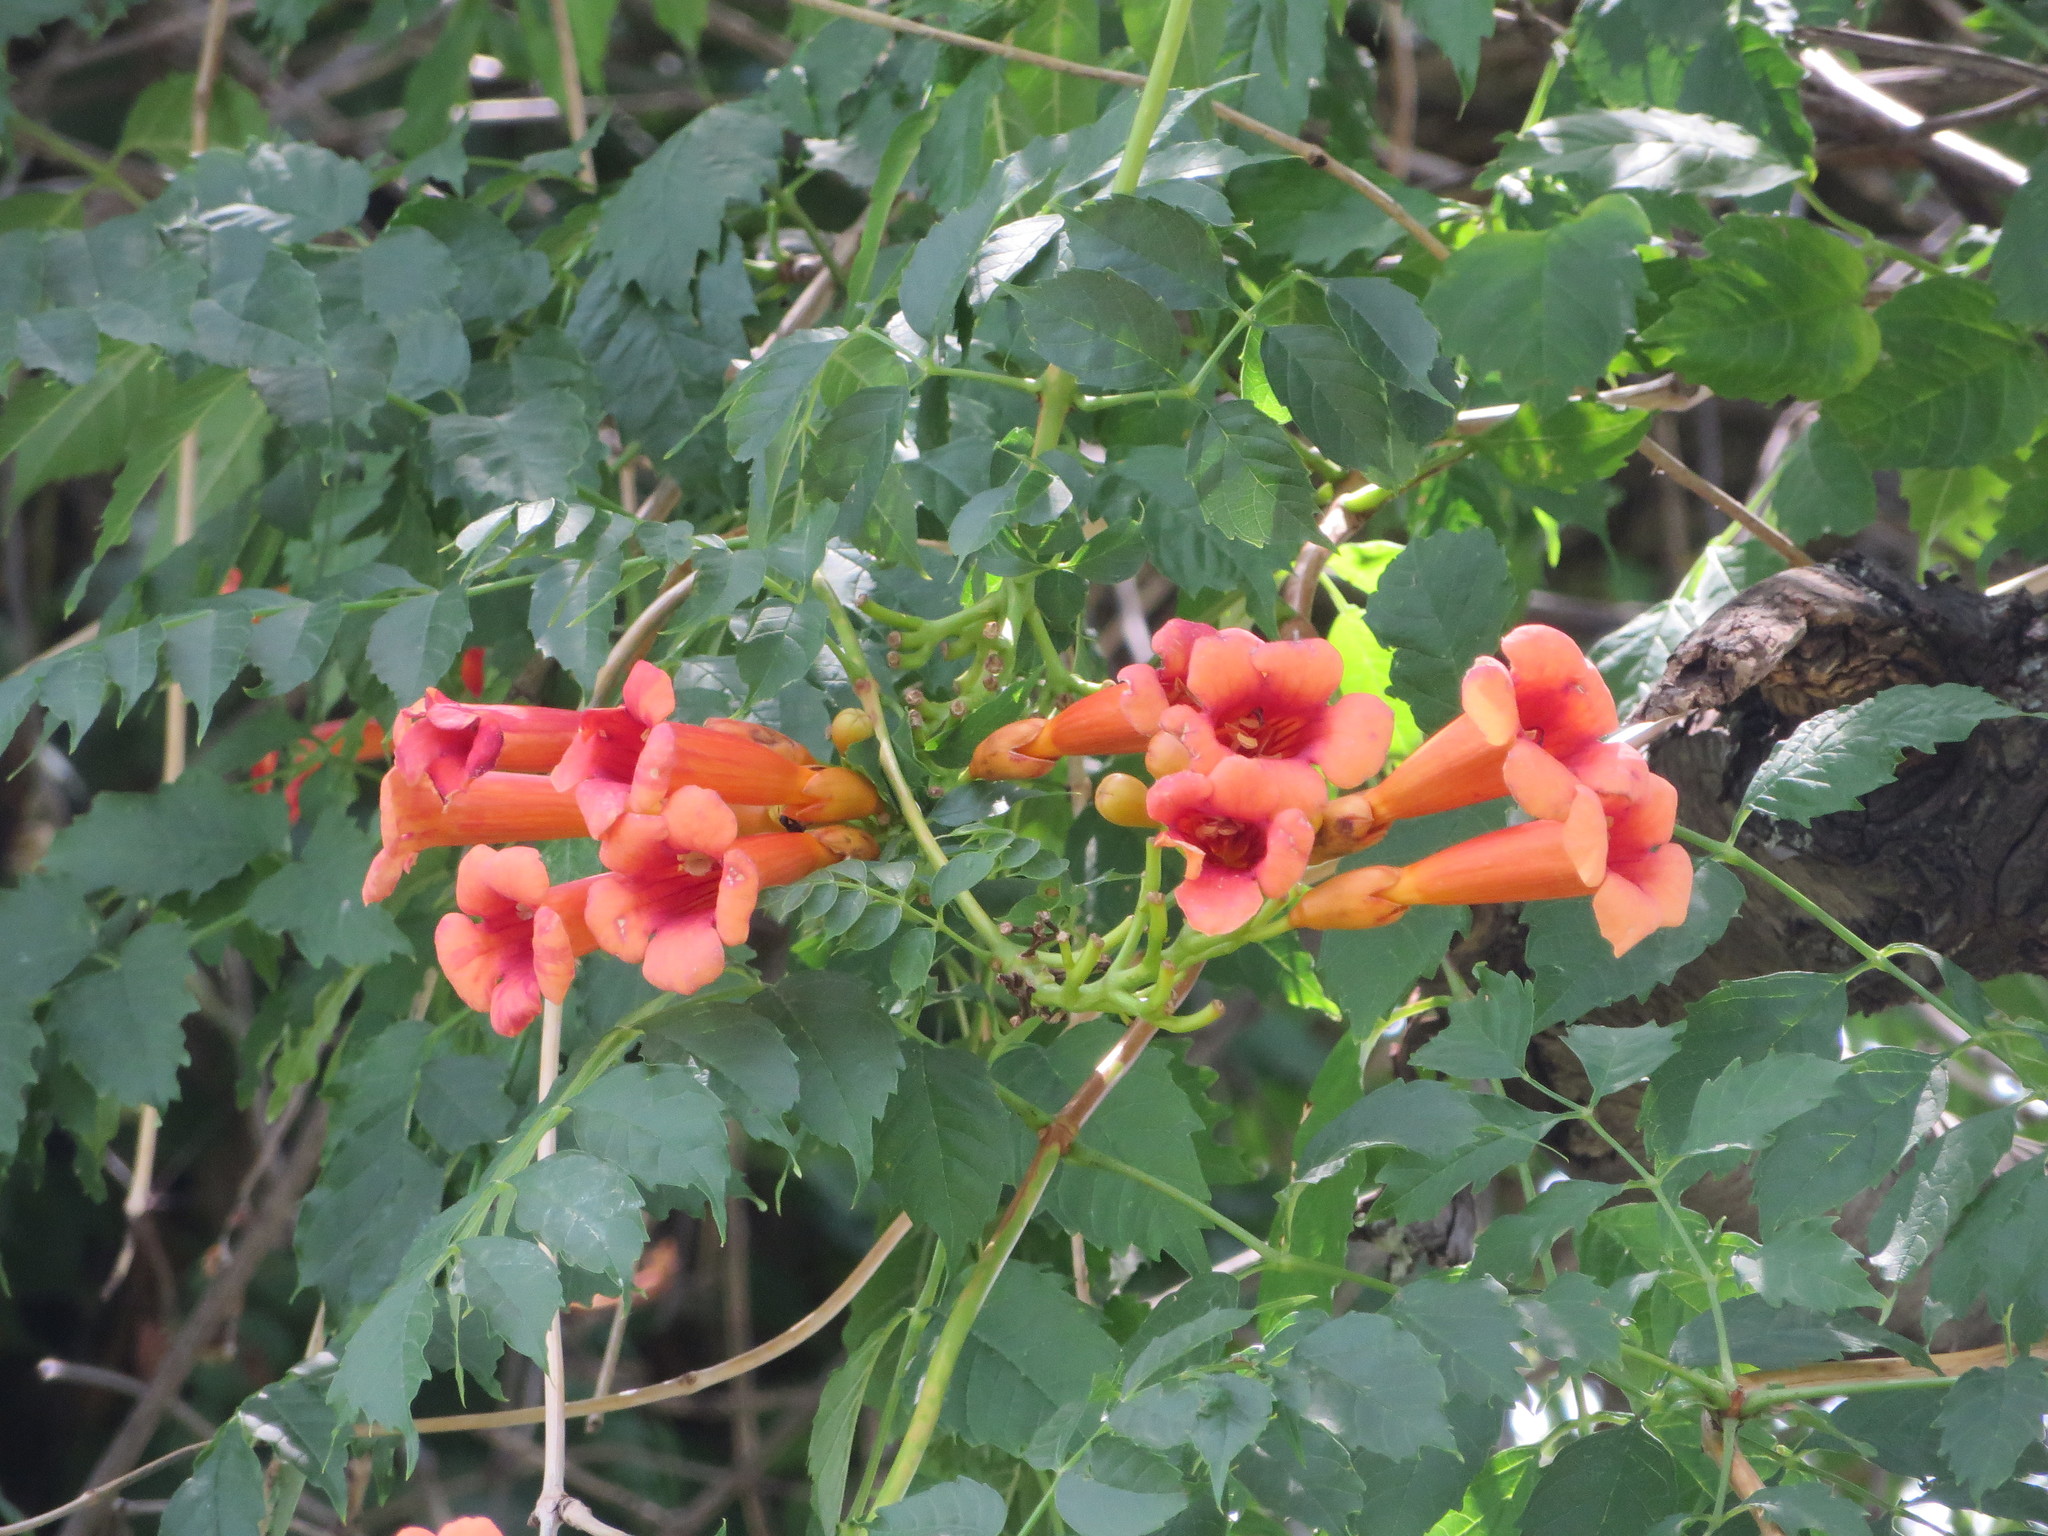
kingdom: Plantae
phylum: Tracheophyta
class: Magnoliopsida
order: Lamiales
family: Bignoniaceae
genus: Campsis
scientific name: Campsis radicans
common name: Trumpet-creeper
